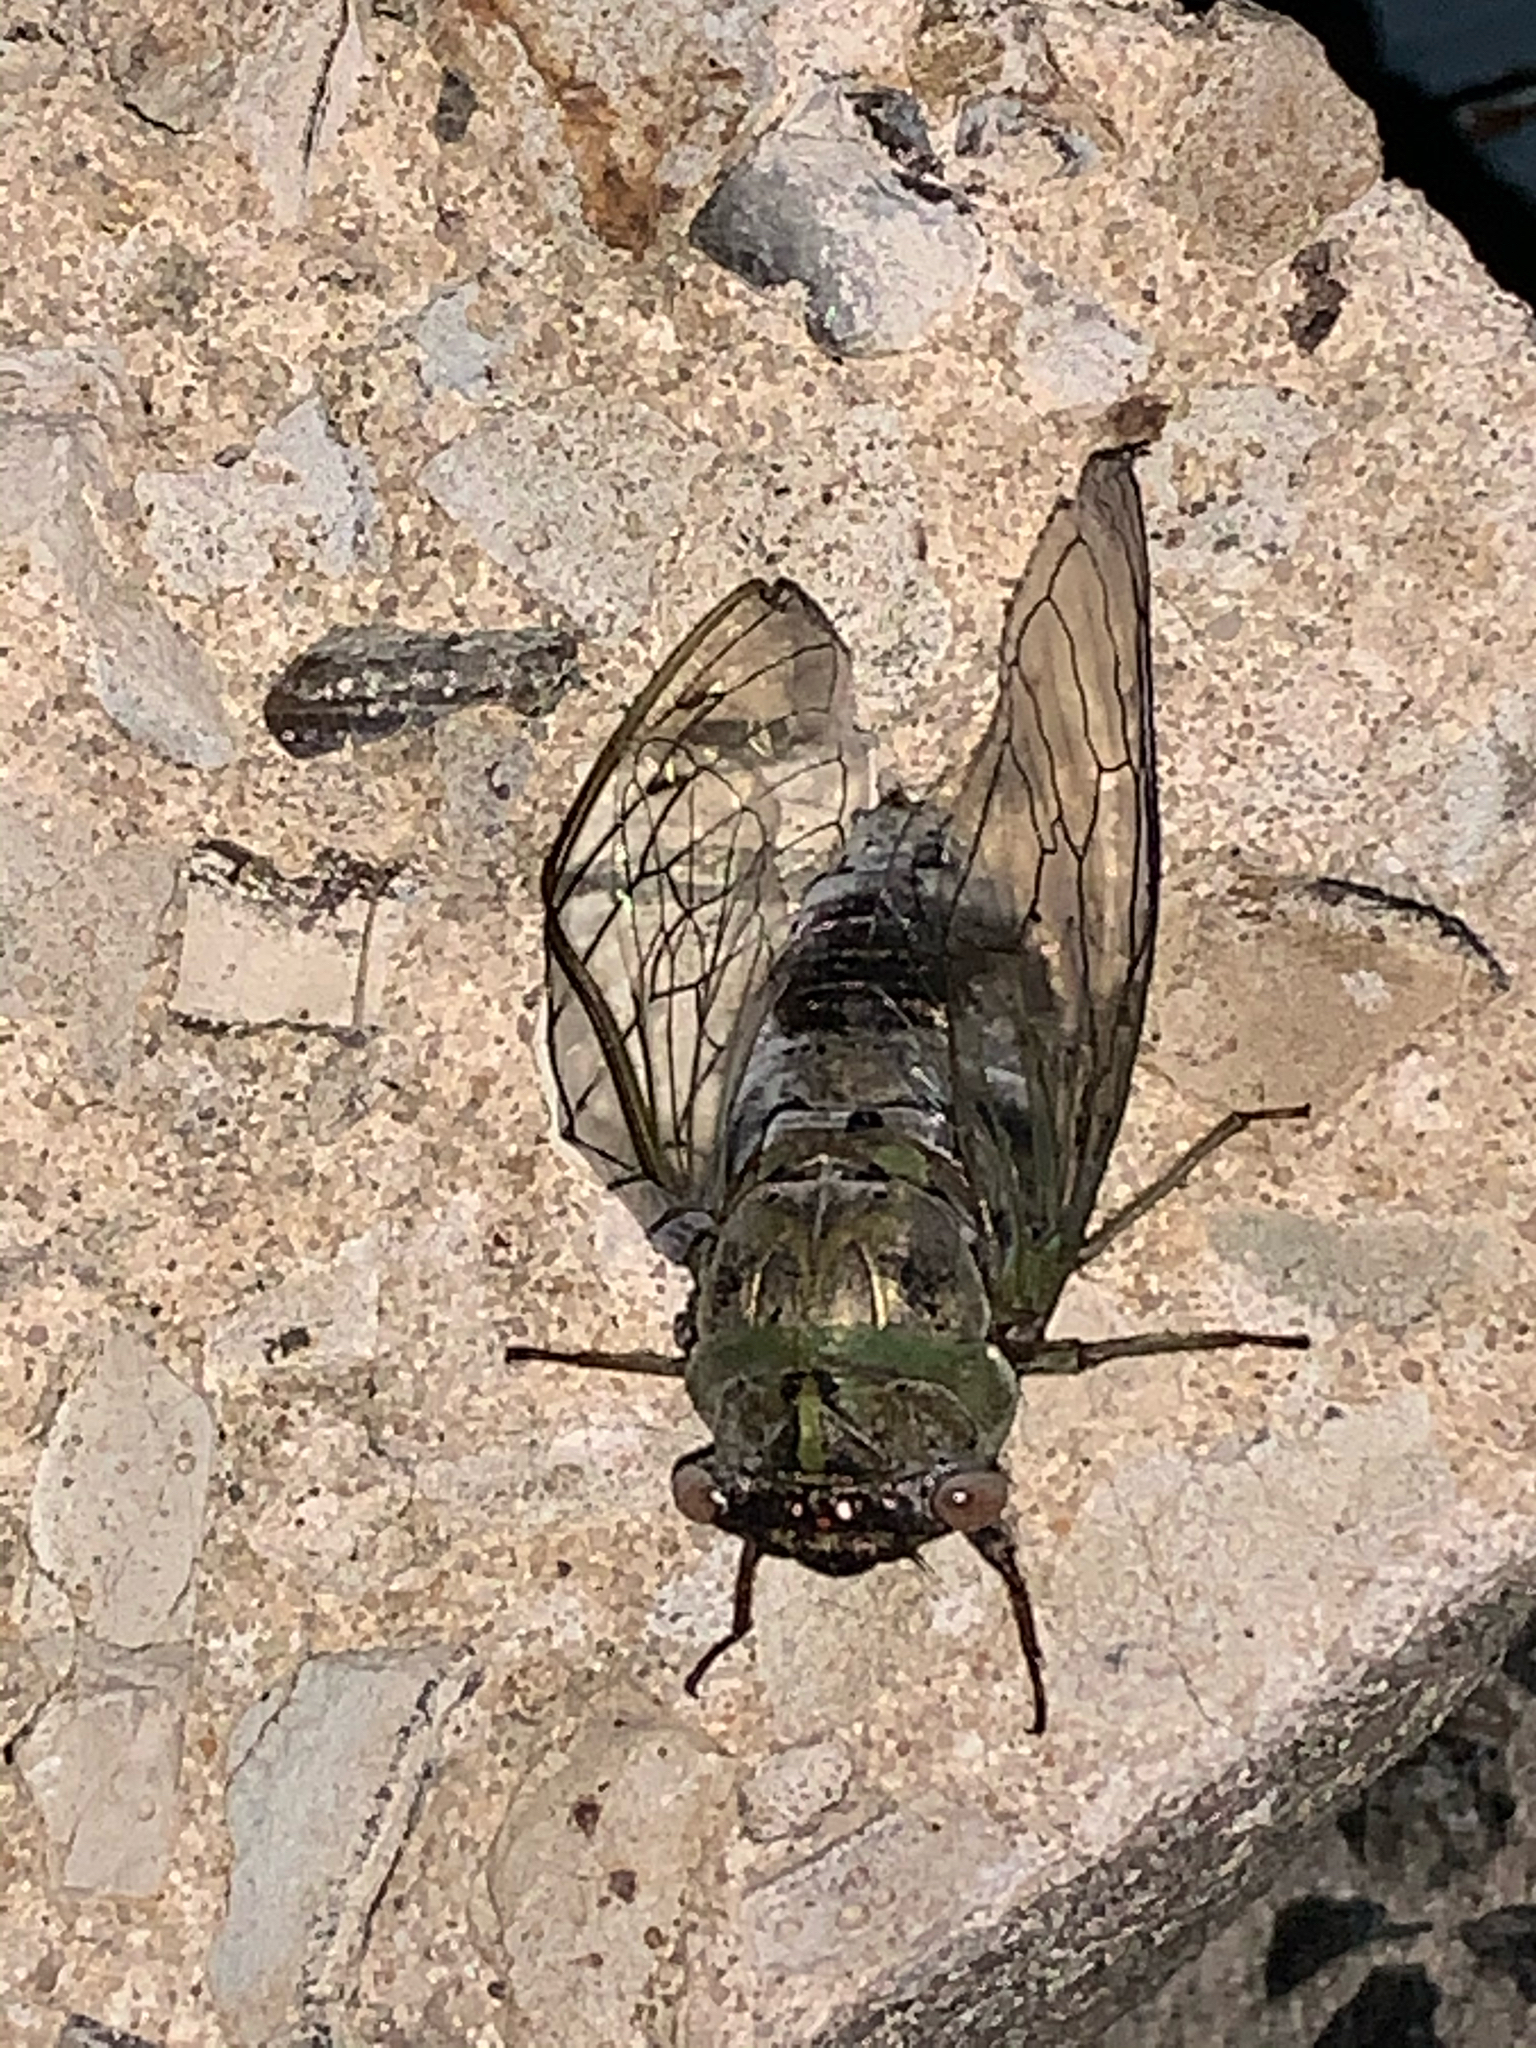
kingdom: Animalia
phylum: Arthropoda
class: Insecta
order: Hemiptera
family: Cicadidae
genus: Diceroprocta
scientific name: Diceroprocta grossa
